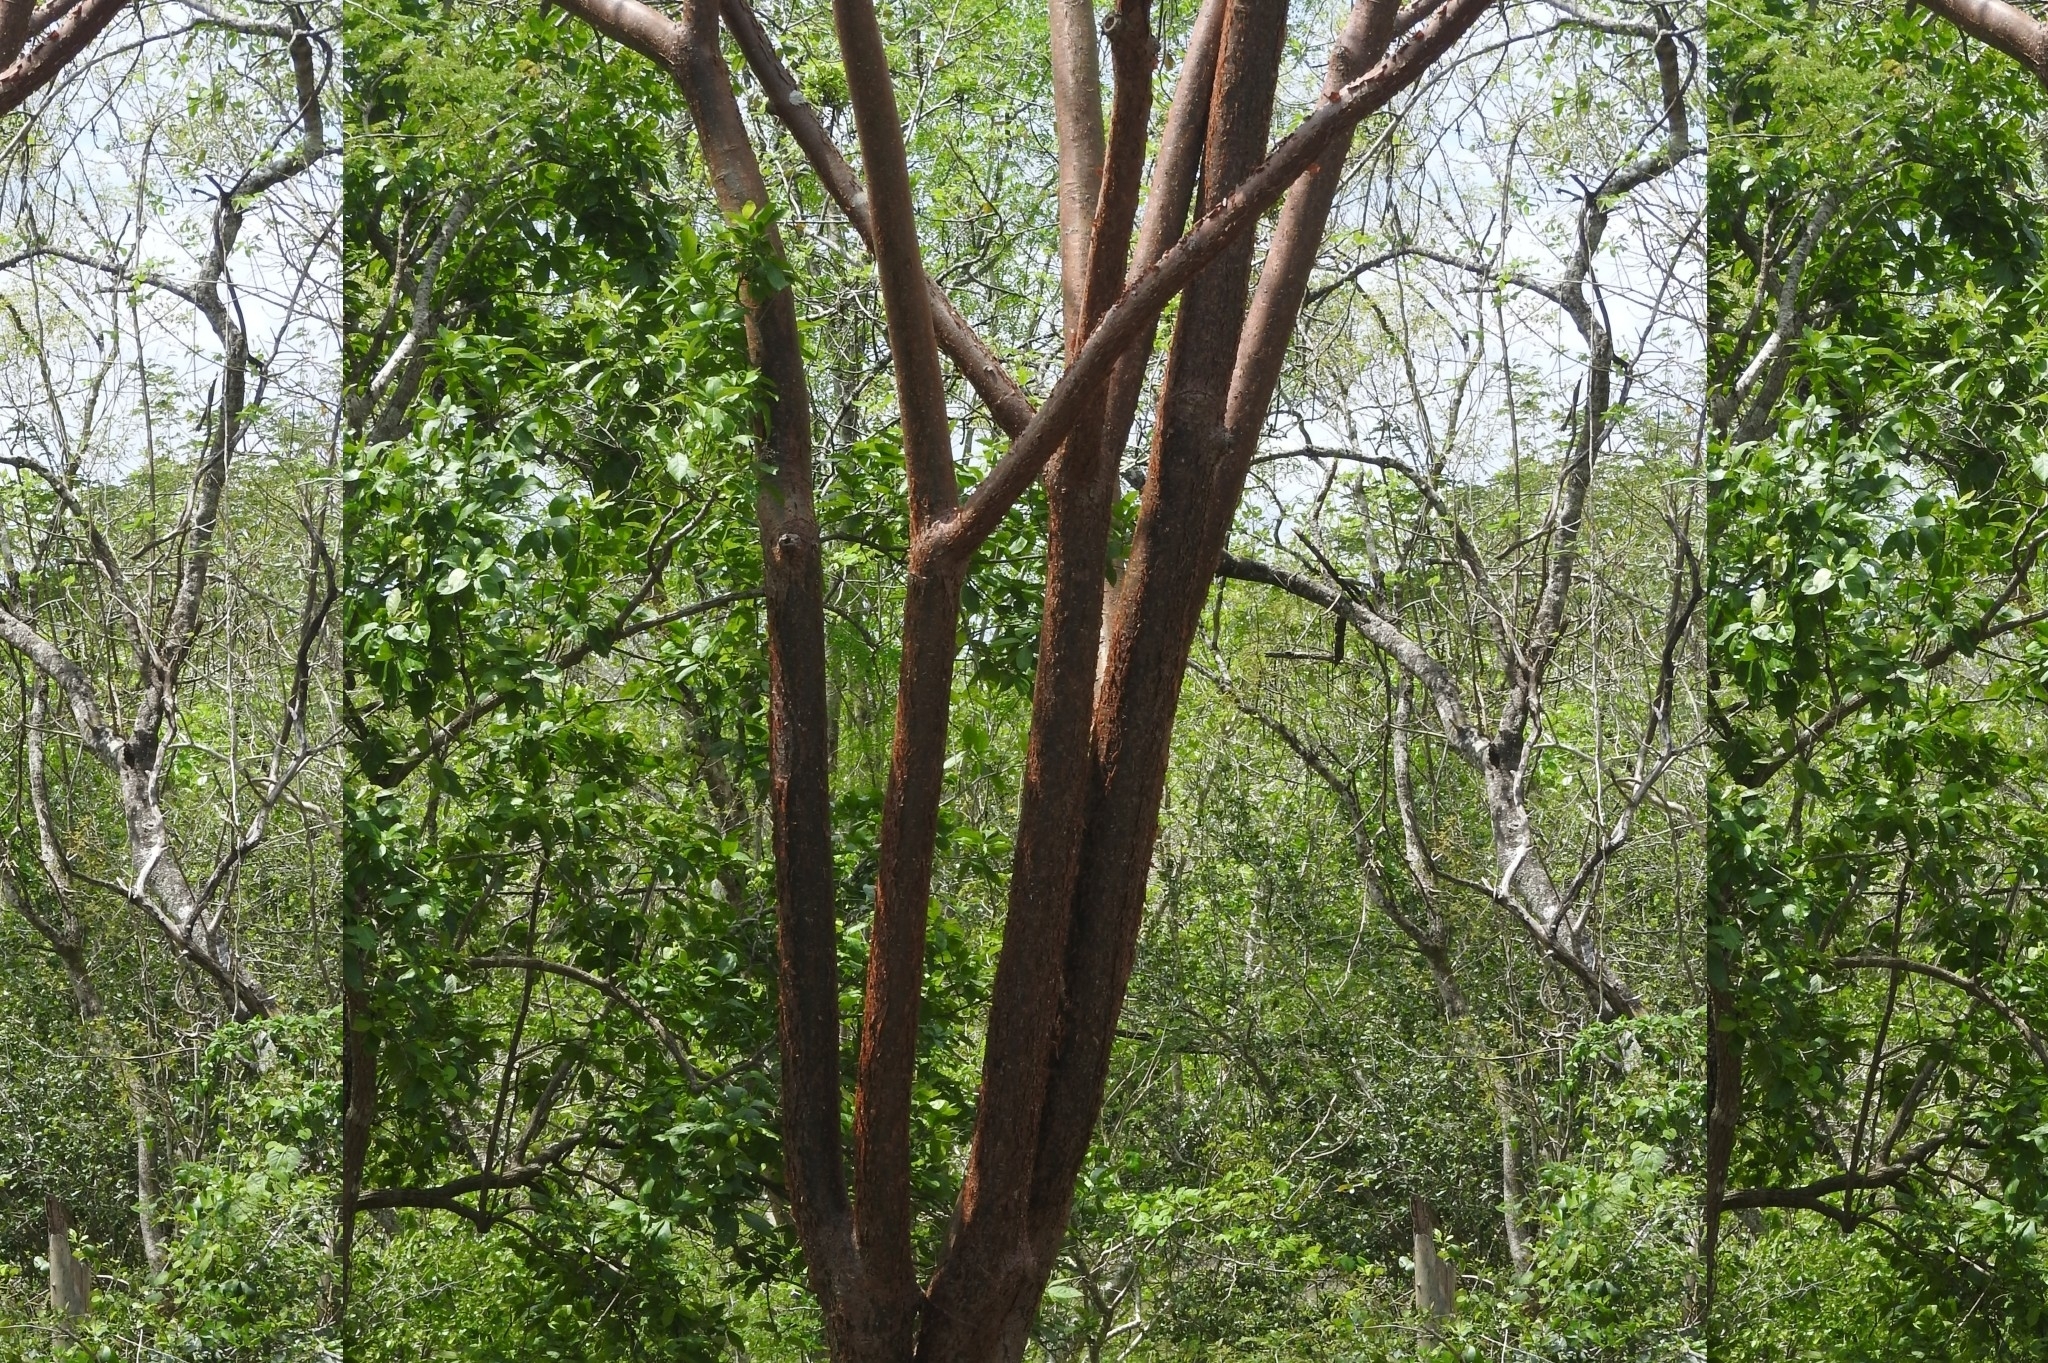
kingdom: Plantae
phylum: Tracheophyta
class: Magnoliopsida
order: Sapindales
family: Burseraceae
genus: Bursera
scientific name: Bursera simaruba
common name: Turpentine tree
